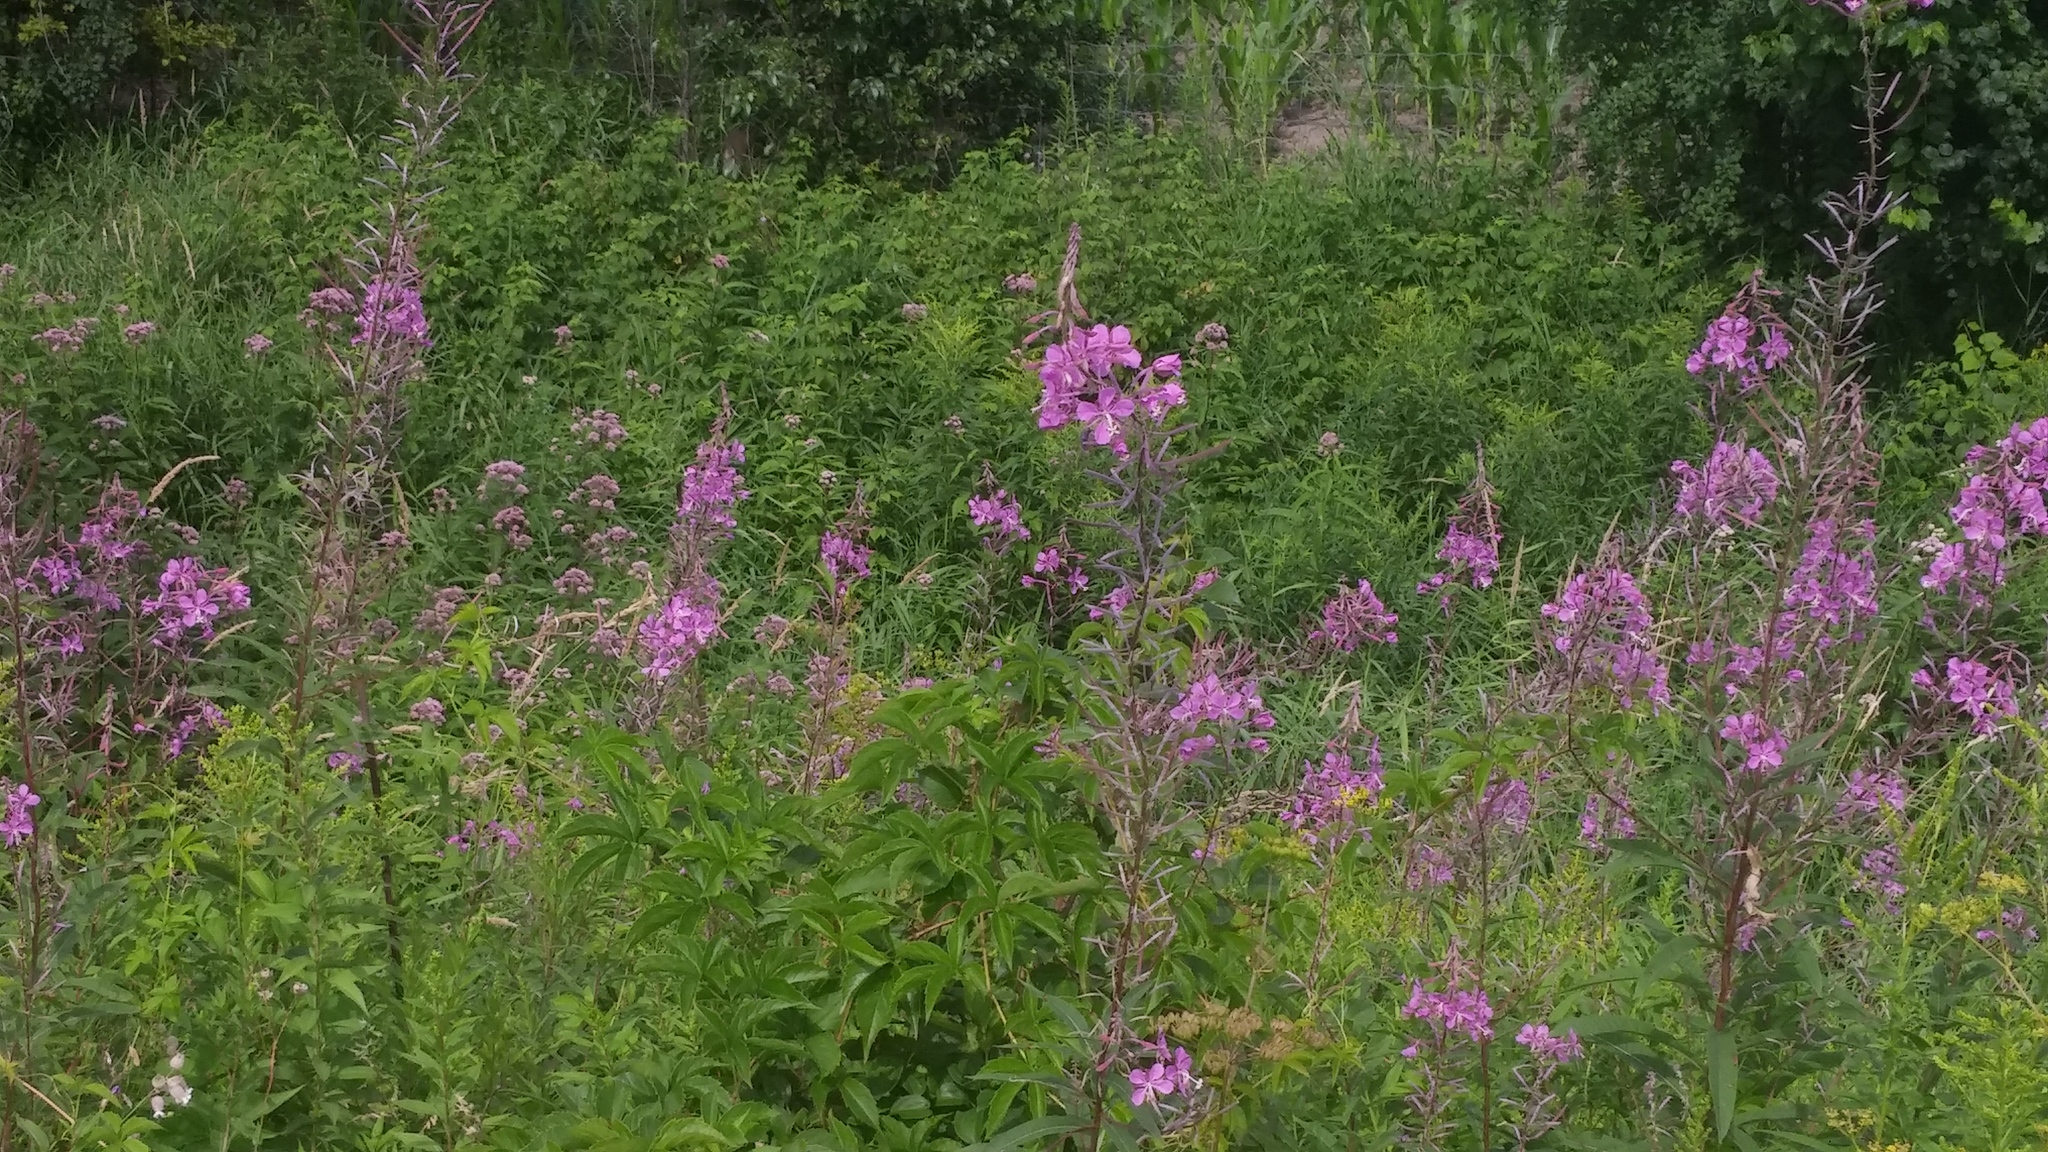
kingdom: Plantae
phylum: Tracheophyta
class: Magnoliopsida
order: Myrtales
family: Onagraceae
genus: Chamaenerion
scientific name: Chamaenerion angustifolium
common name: Fireweed
